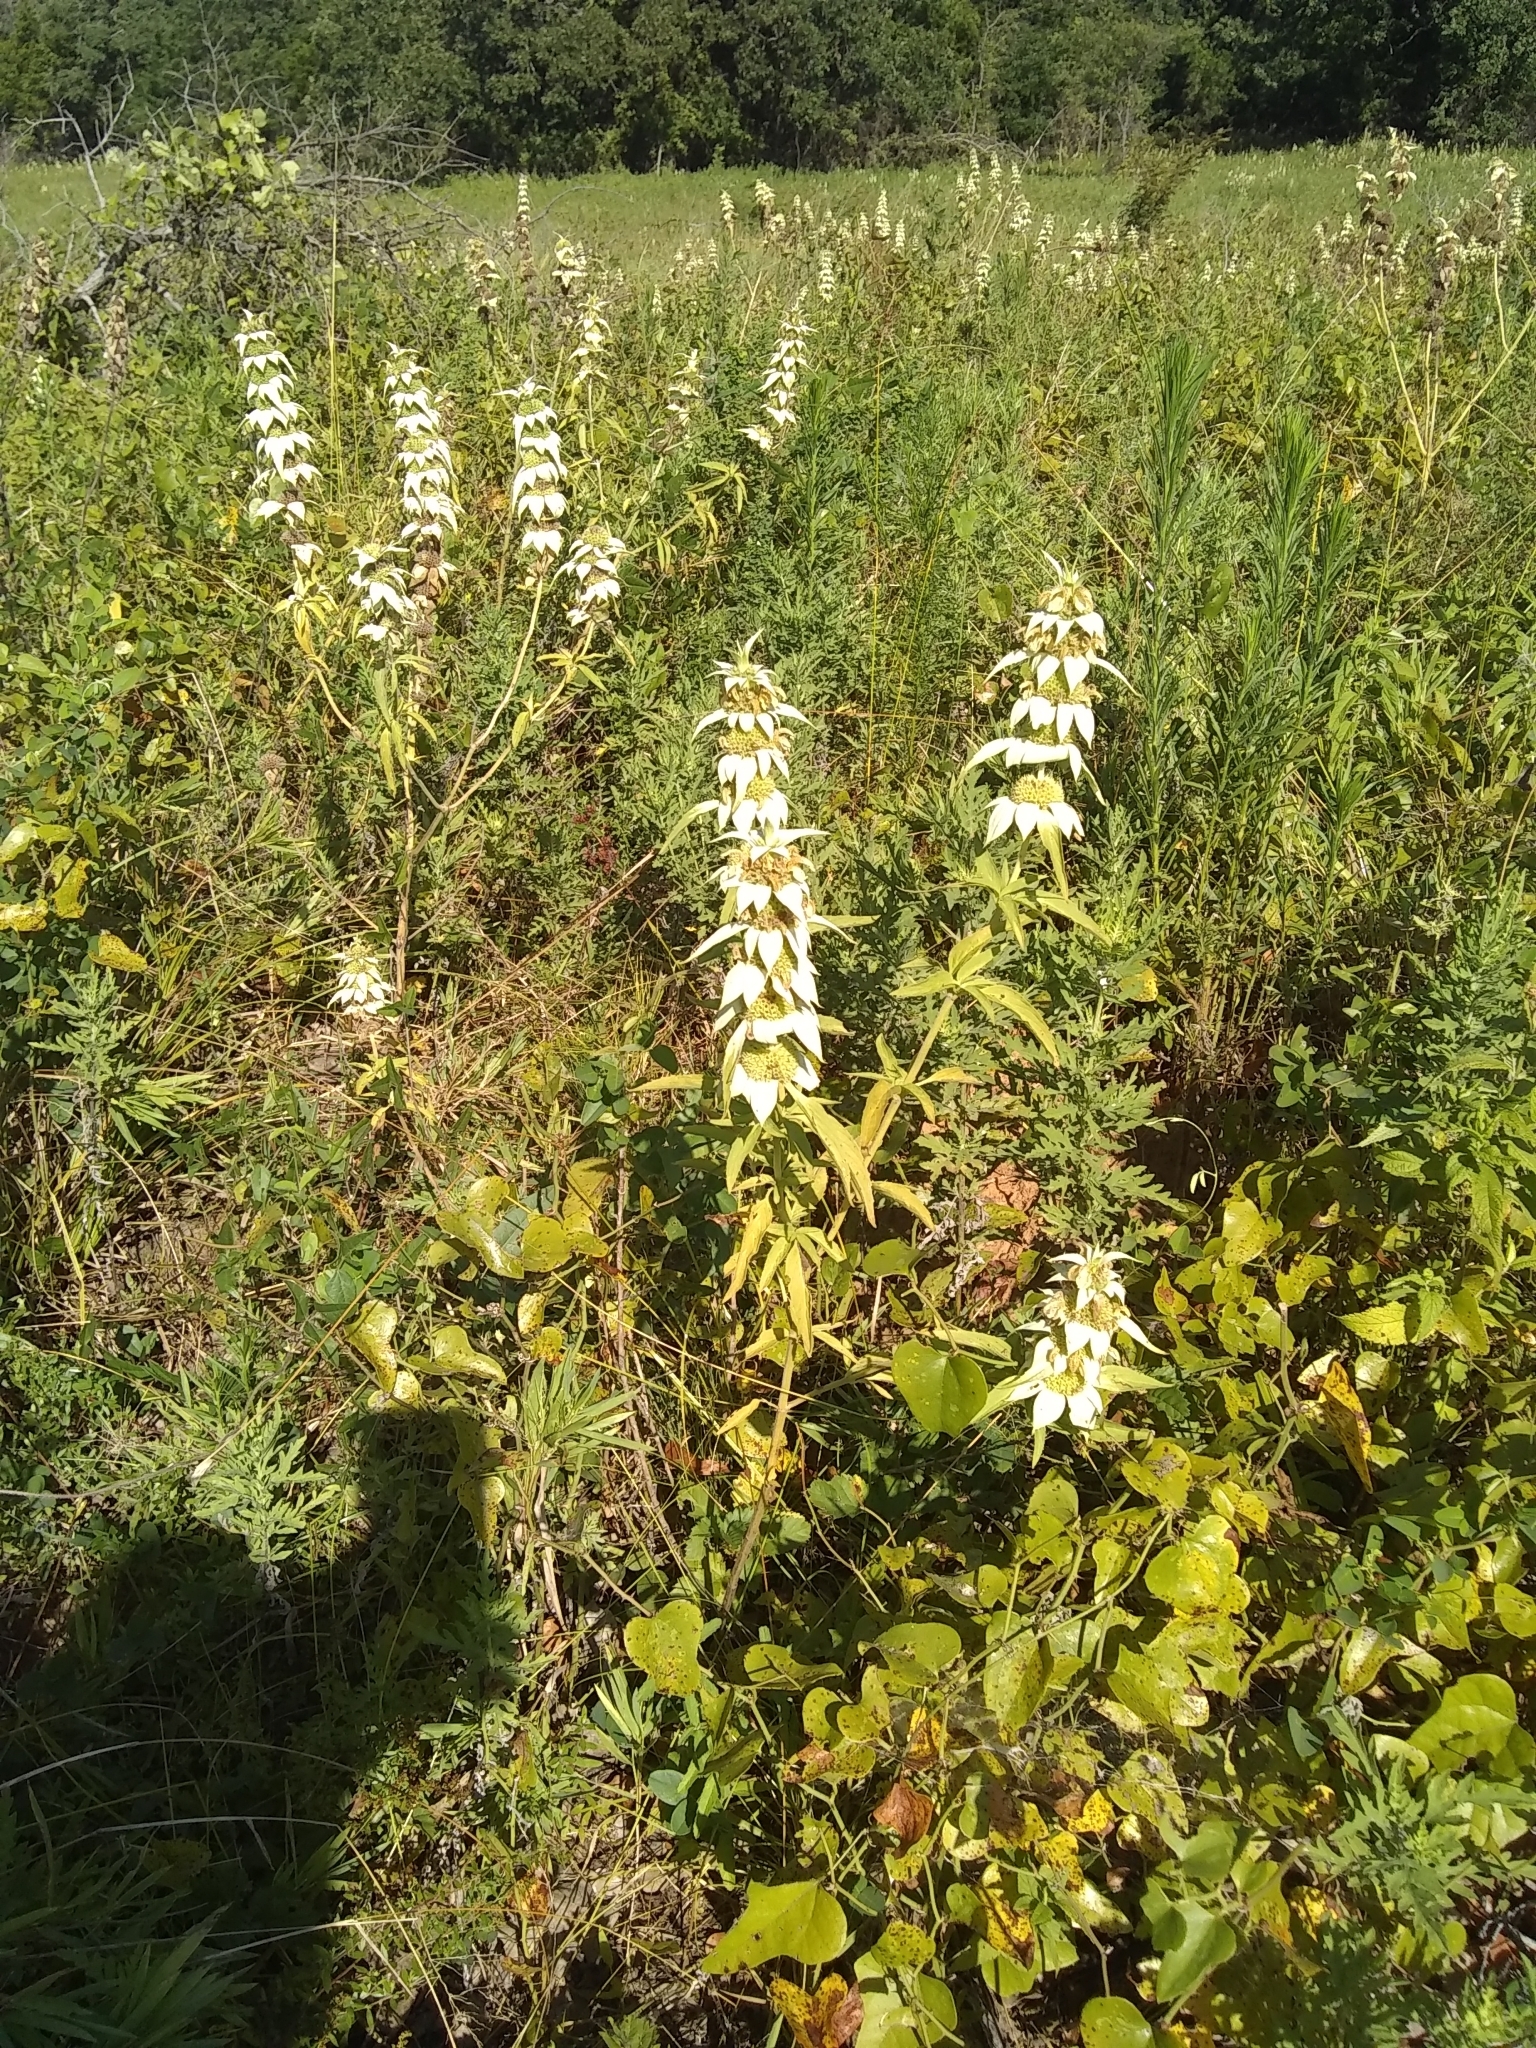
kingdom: Plantae
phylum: Tracheophyta
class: Magnoliopsida
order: Lamiales
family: Lamiaceae
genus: Monarda
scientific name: Monarda punctata
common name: Dotted monarda
